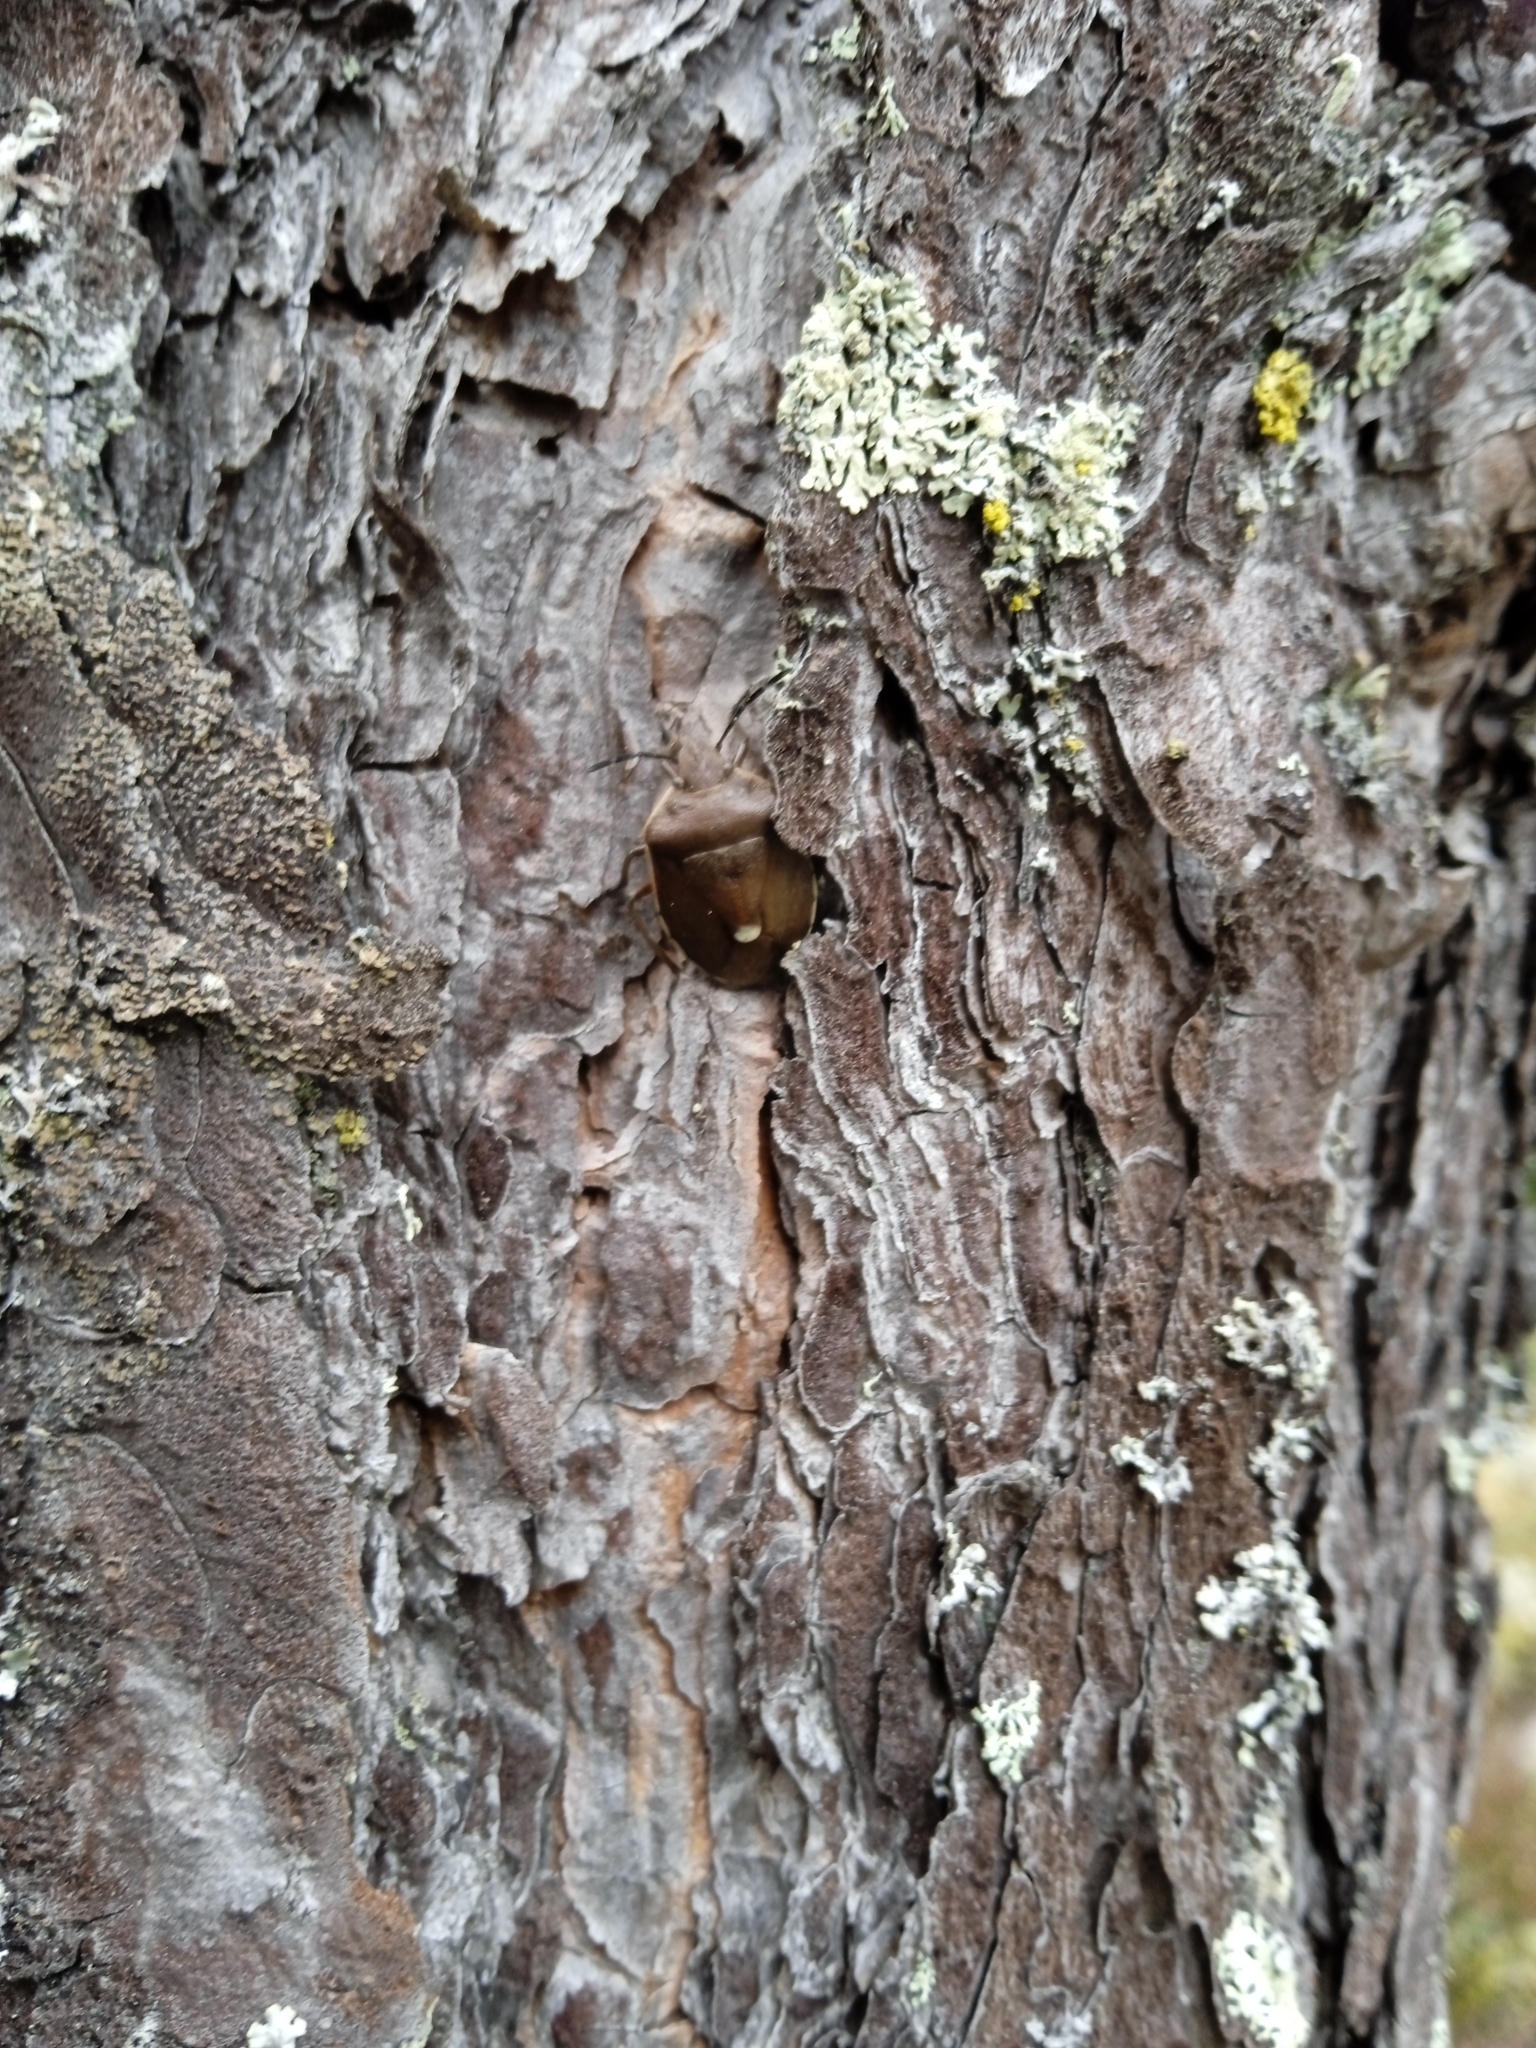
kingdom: Animalia
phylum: Arthropoda
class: Insecta
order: Hemiptera
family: Pentatomidae
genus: Chlorochroa
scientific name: Chlorochroa pinicola
